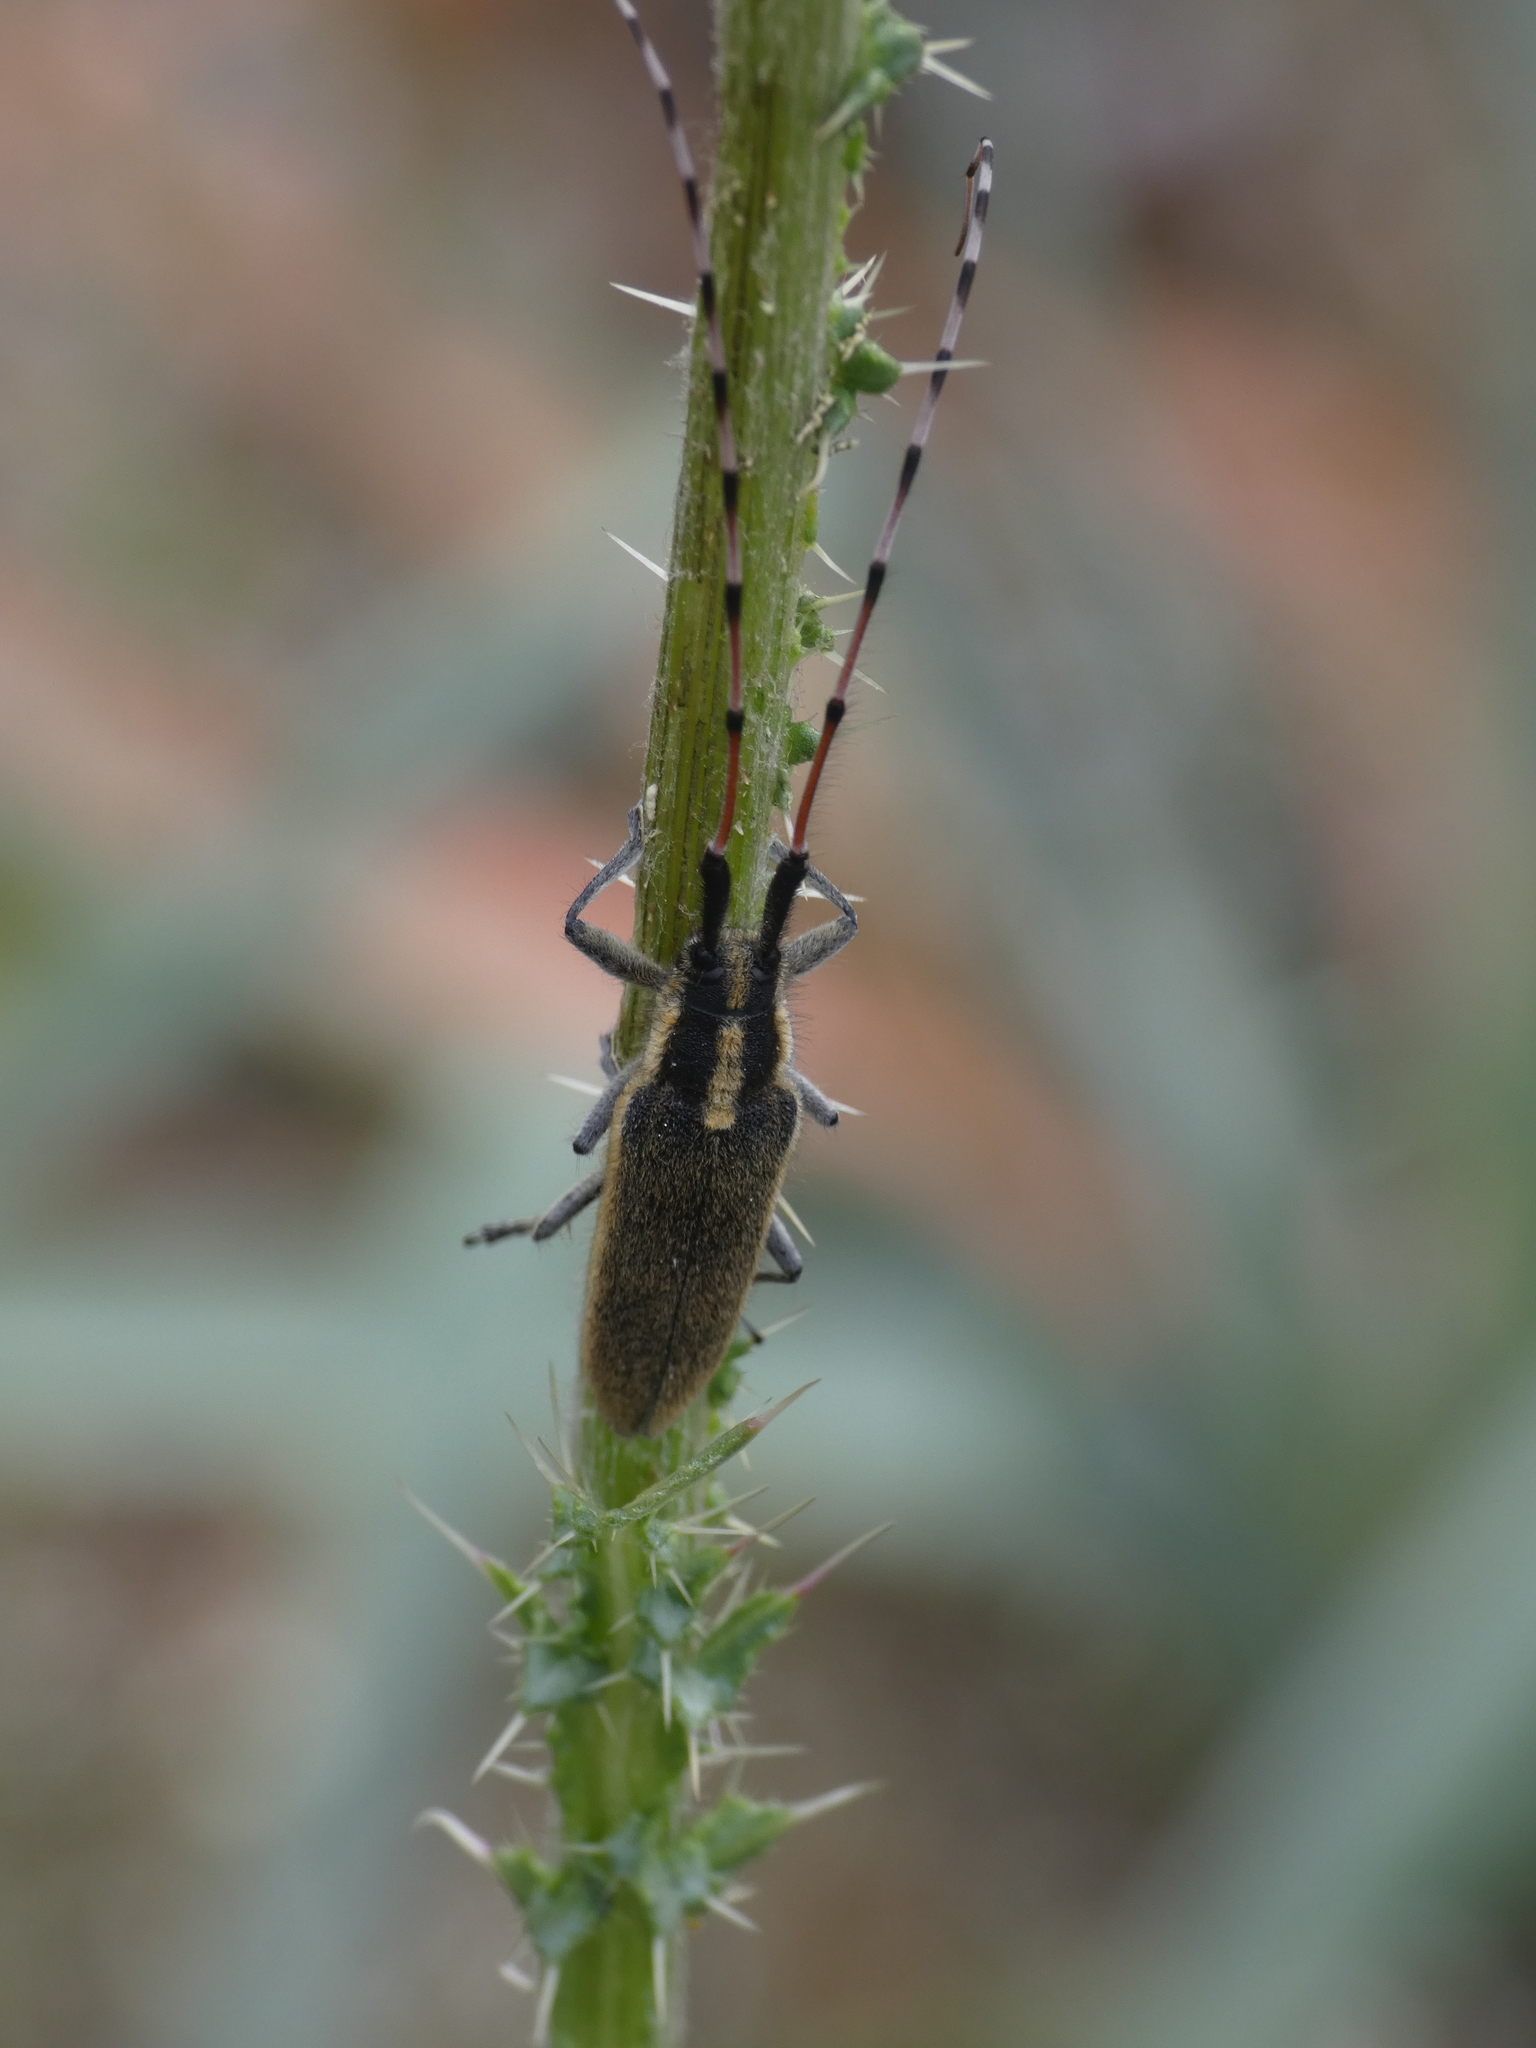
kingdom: Animalia
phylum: Arthropoda
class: Insecta
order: Coleoptera
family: Cerambycidae
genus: Agapanthia
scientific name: Agapanthia asphodeli
